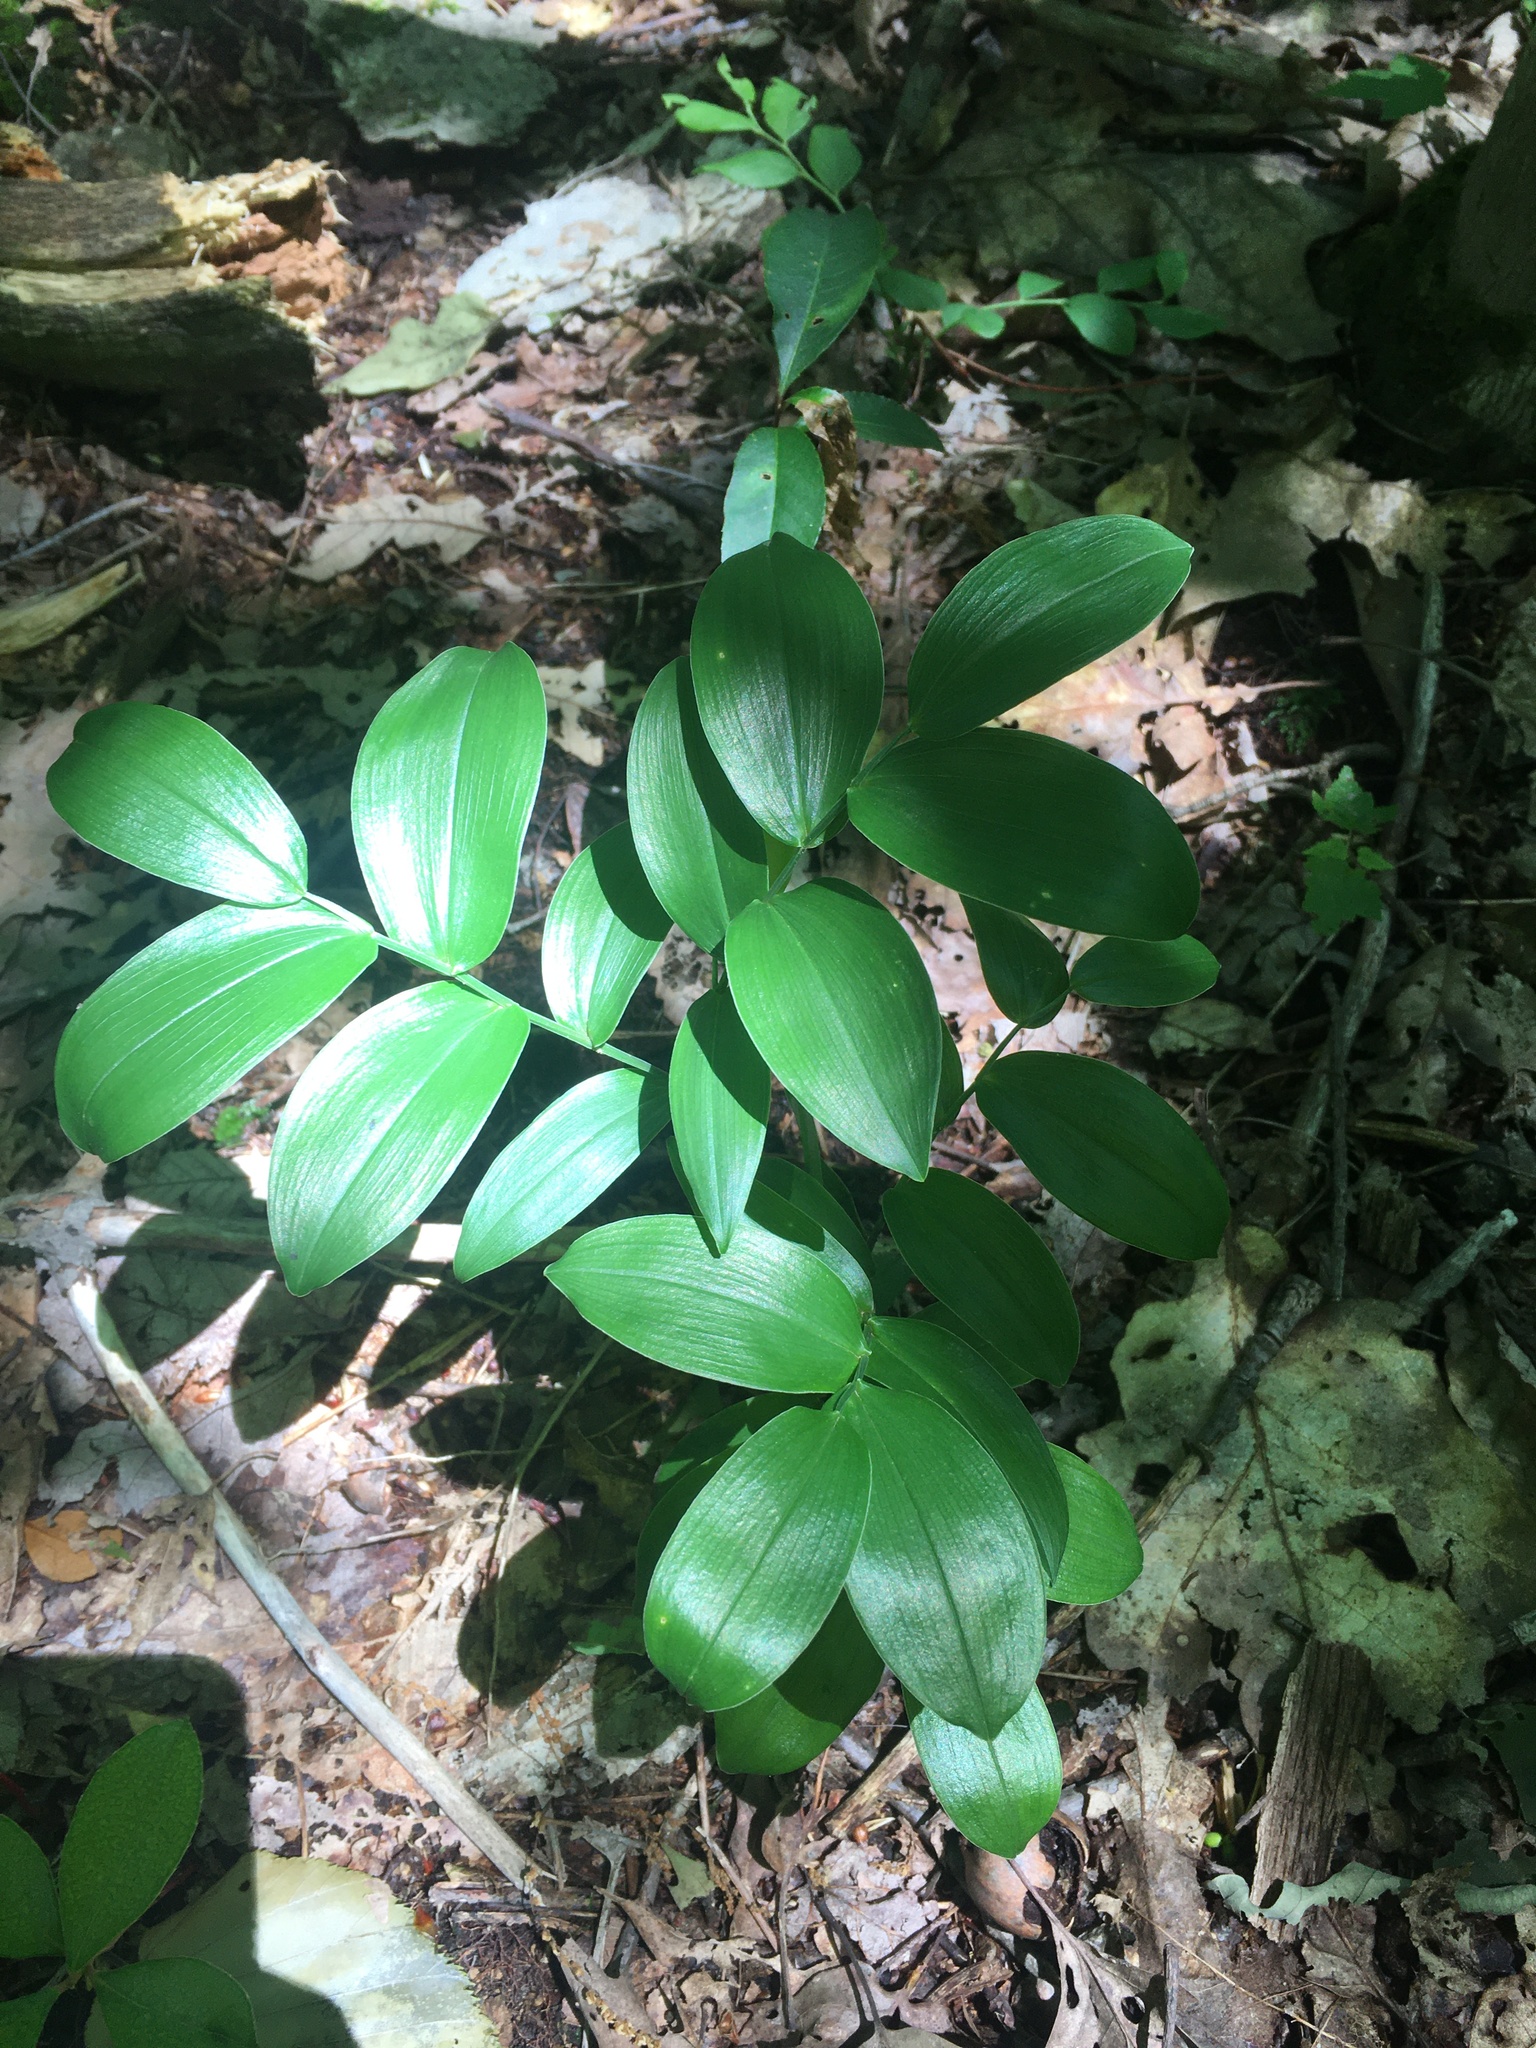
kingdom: Plantae
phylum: Tracheophyta
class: Liliopsida
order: Liliales
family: Colchicaceae
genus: Uvularia
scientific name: Uvularia puberula
